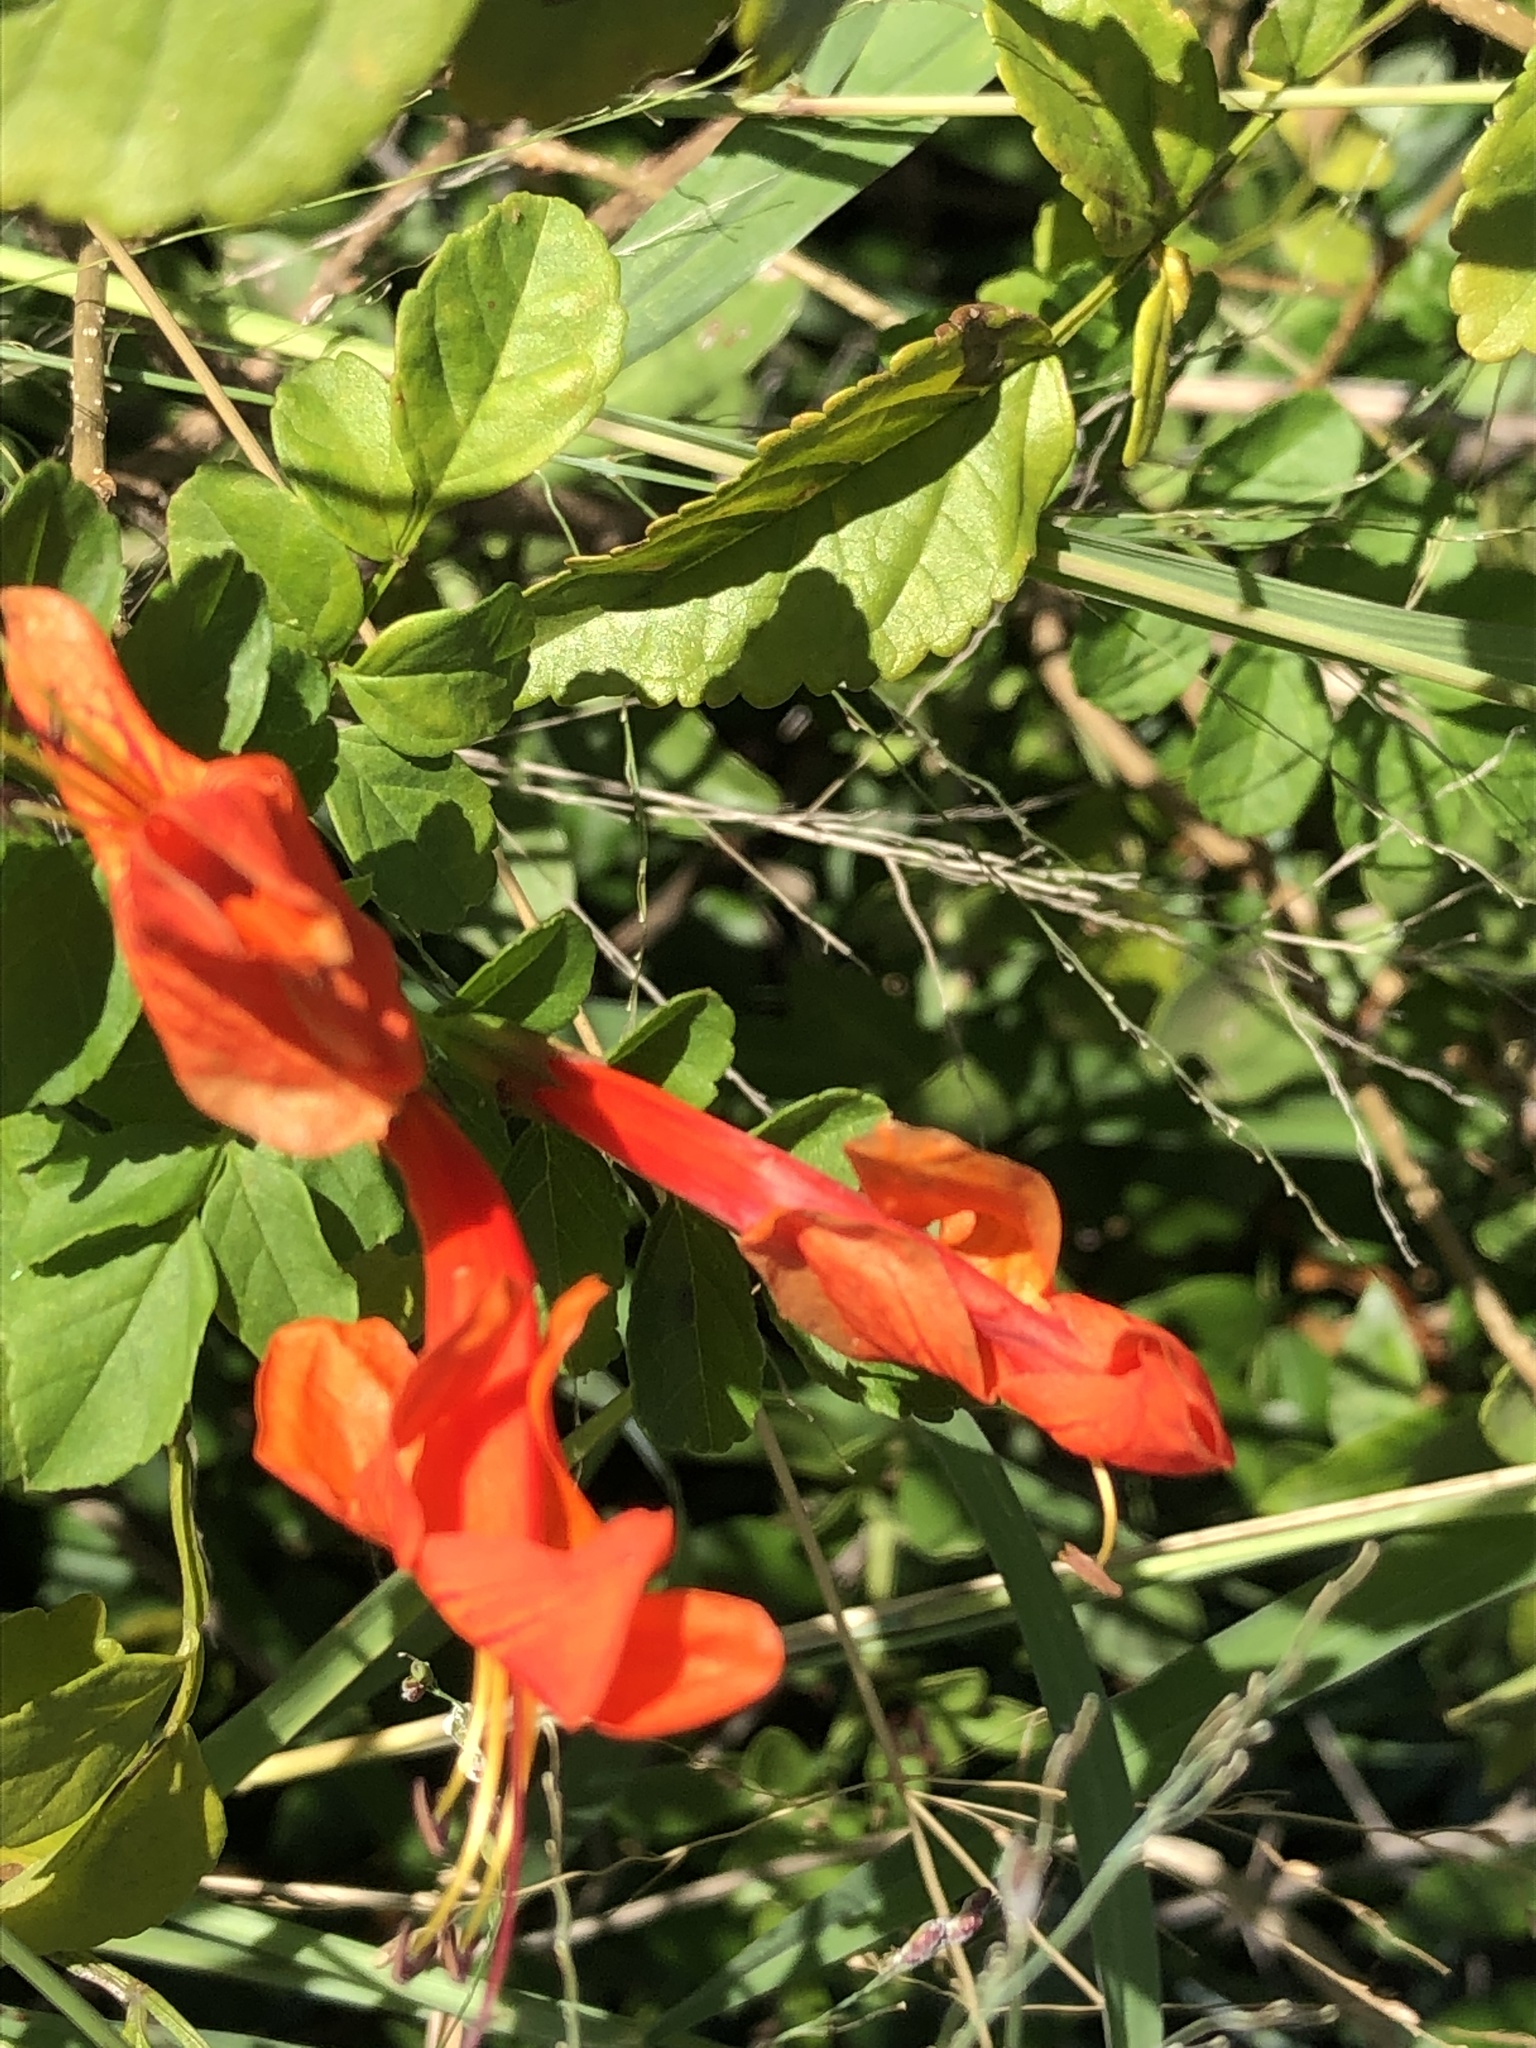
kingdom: Plantae
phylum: Tracheophyta
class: Magnoliopsida
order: Lamiales
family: Bignoniaceae
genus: Tecomaria
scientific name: Tecomaria capensis
